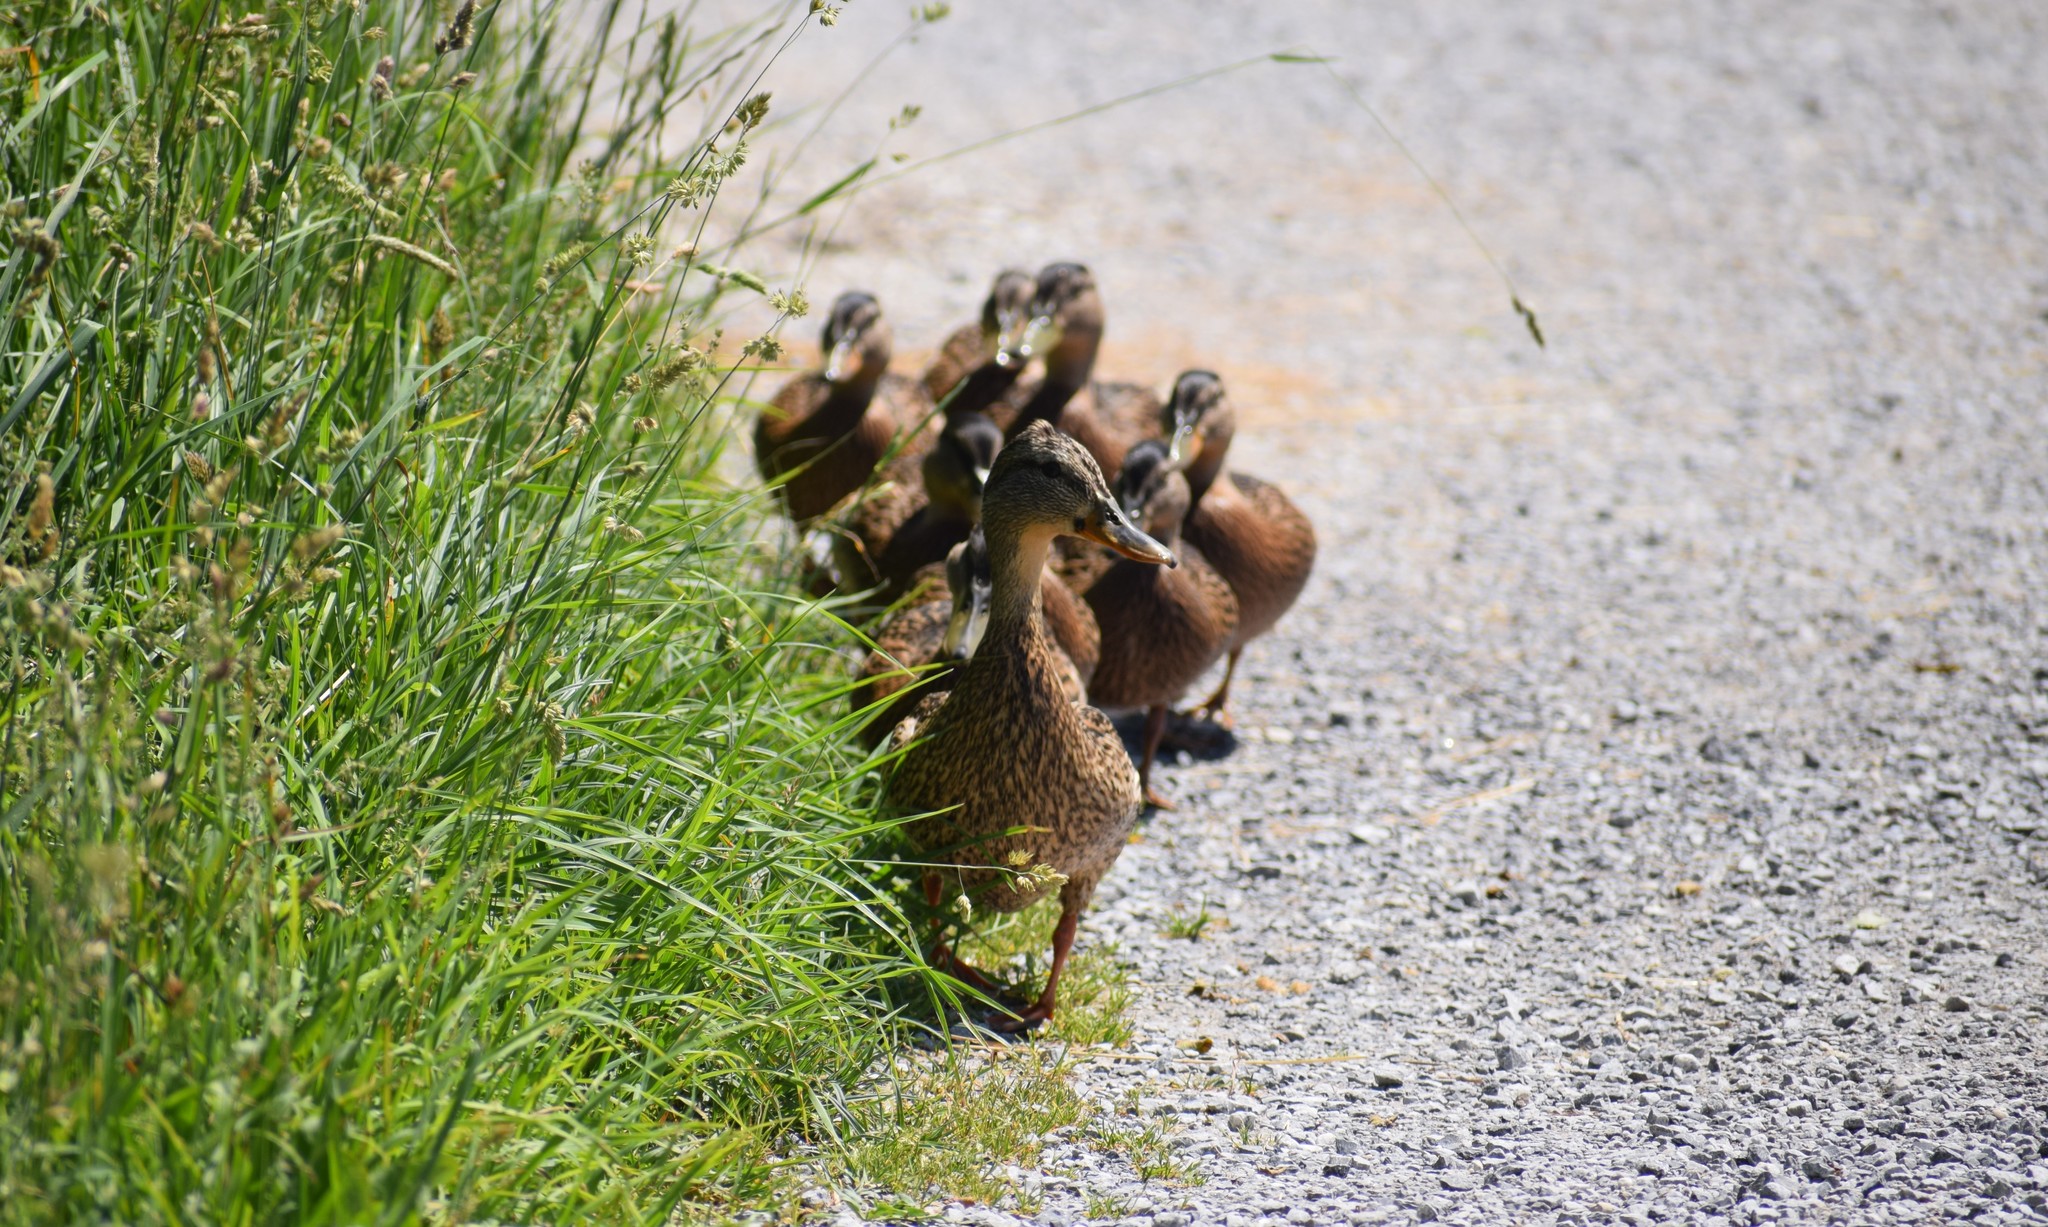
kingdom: Animalia
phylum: Chordata
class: Aves
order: Anseriformes
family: Anatidae
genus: Anas
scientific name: Anas platyrhynchos
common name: Mallard
